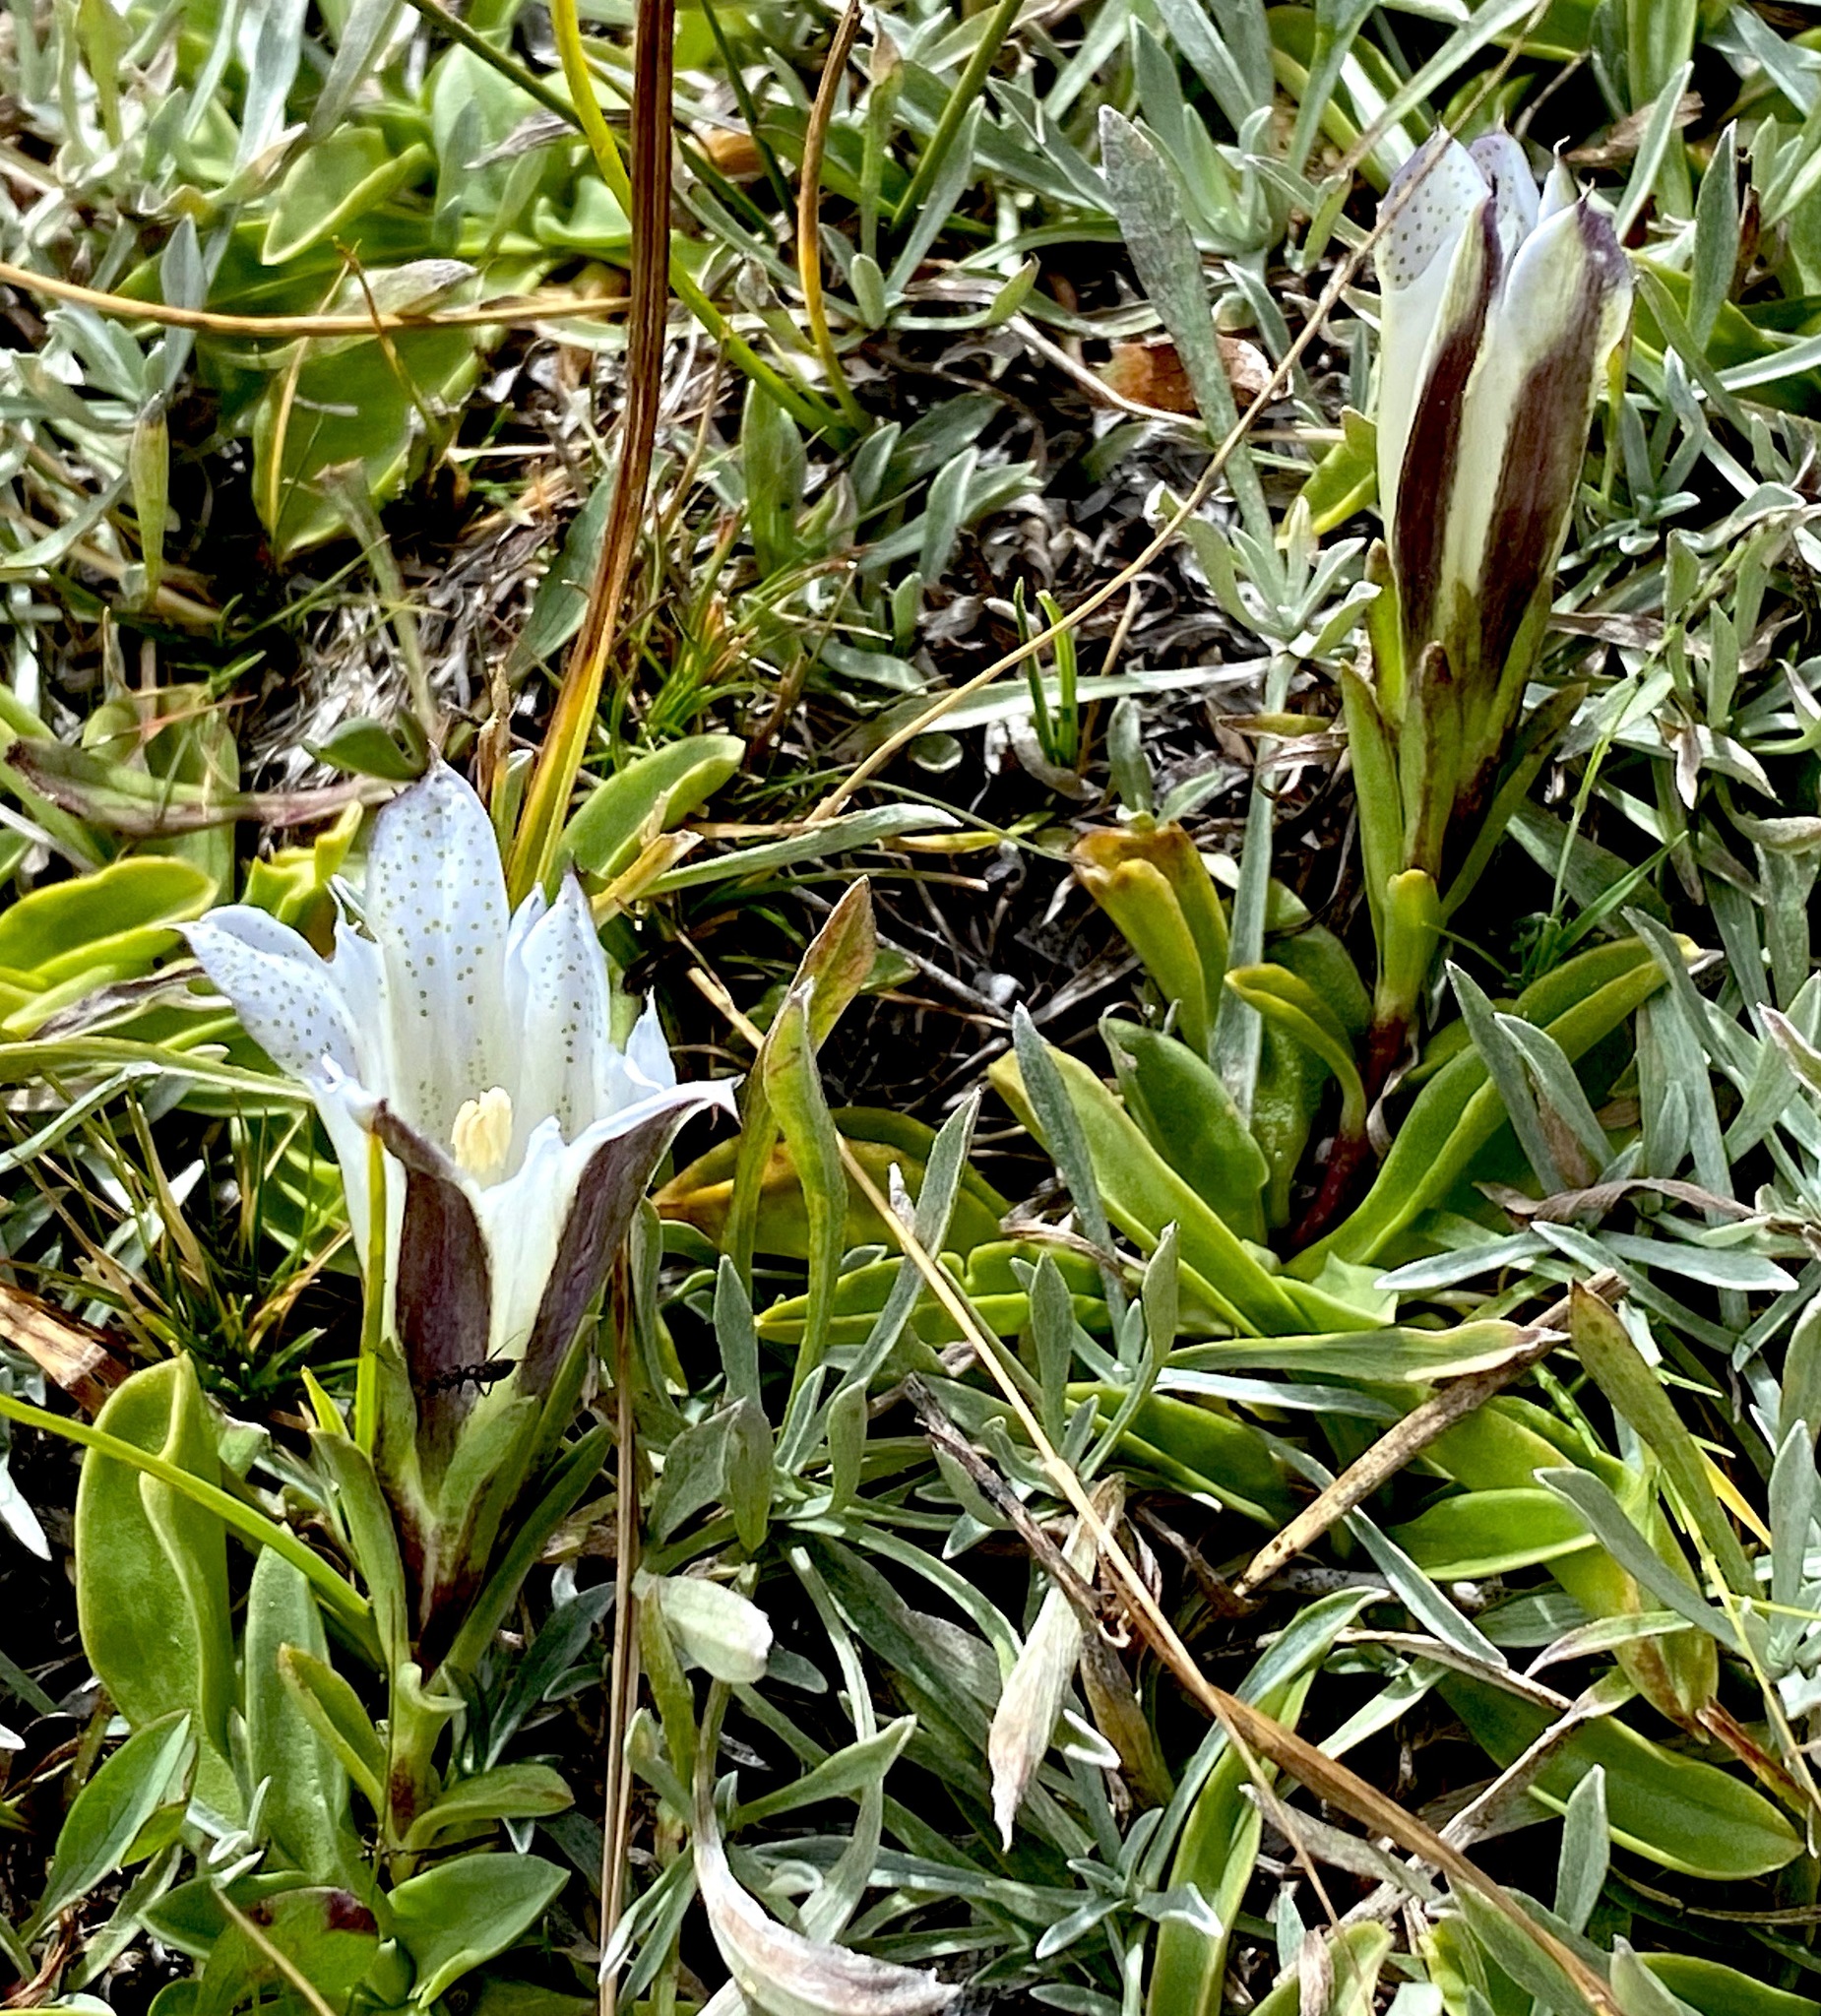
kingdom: Plantae
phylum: Tracheophyta
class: Magnoliopsida
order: Gentianales
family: Gentianaceae
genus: Gentiana
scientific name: Gentiana newberryi
